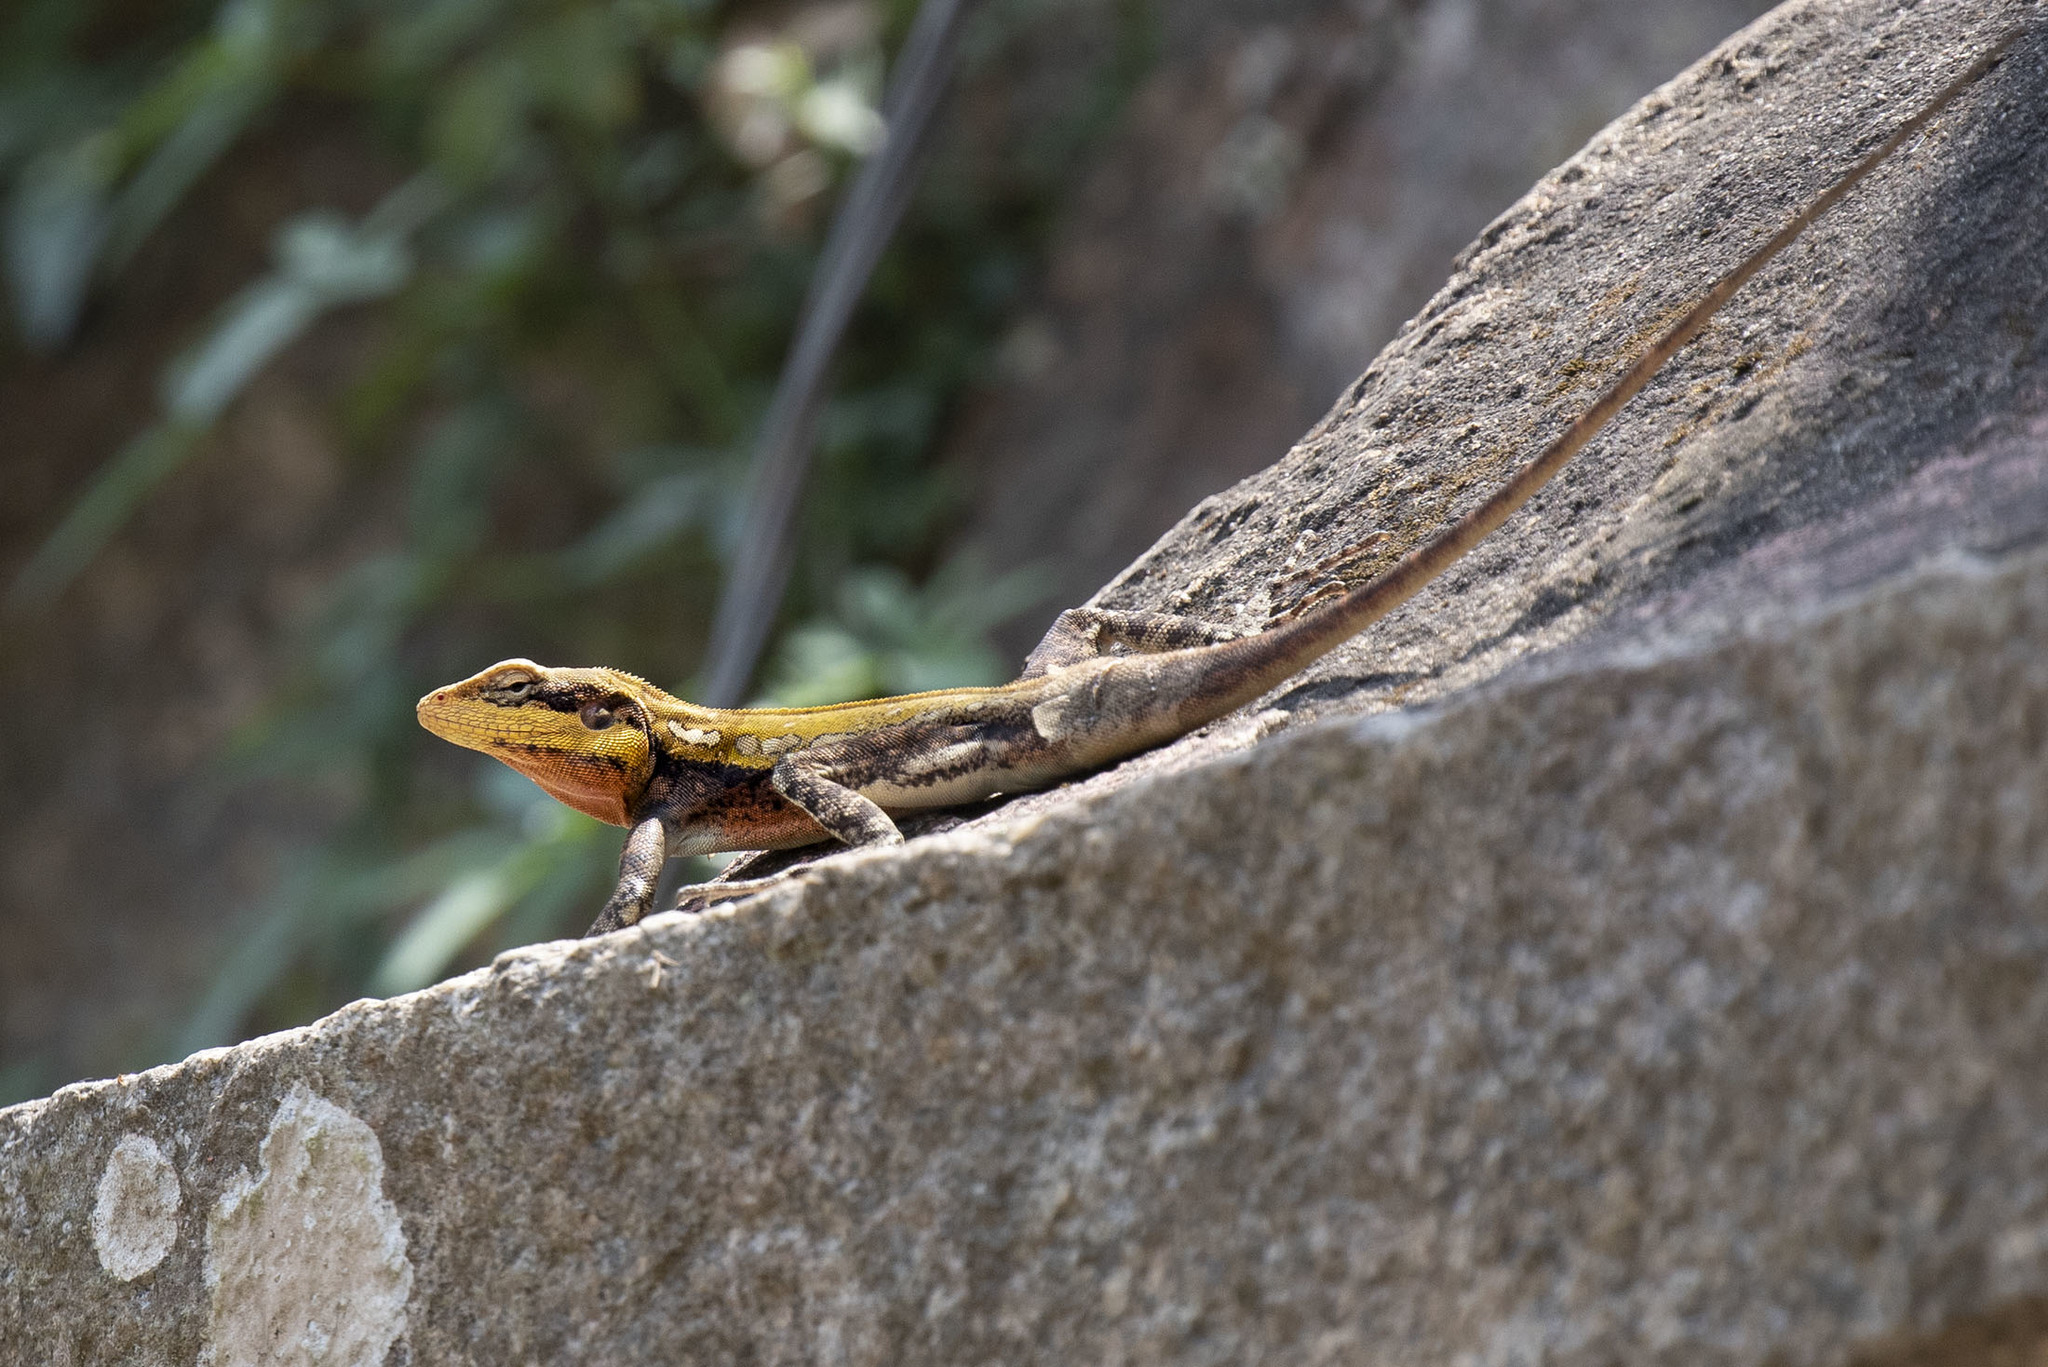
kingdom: Animalia
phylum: Chordata
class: Squamata
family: Agamidae
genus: Psammophilus
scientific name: Psammophilus dorsalis
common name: South indian rock agama
